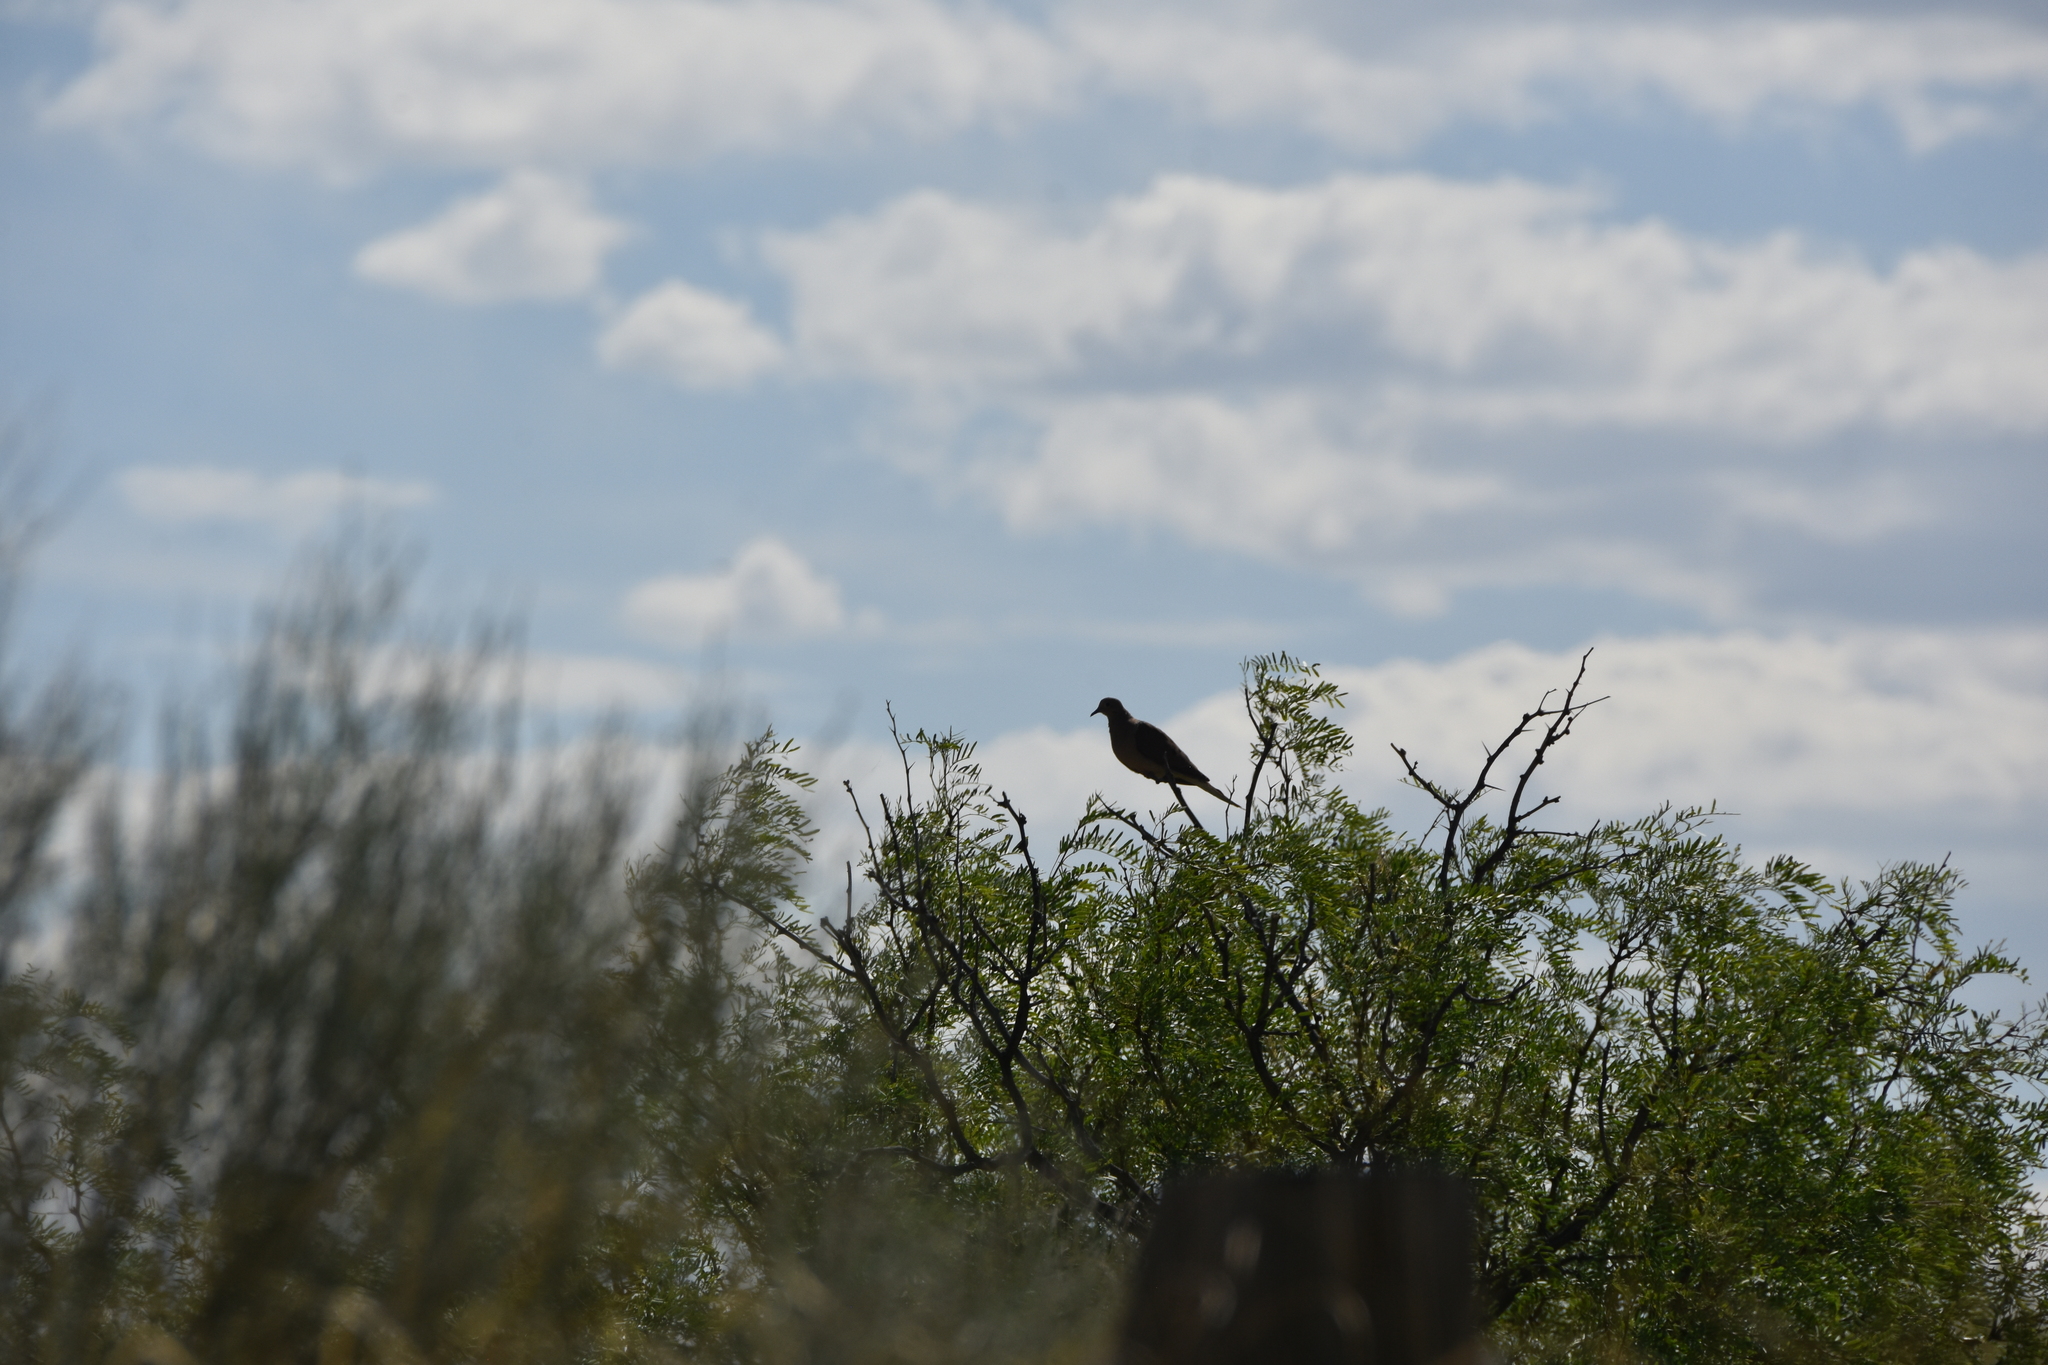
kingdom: Animalia
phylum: Chordata
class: Aves
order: Columbiformes
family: Columbidae
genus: Zenaida
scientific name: Zenaida macroura
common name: Mourning dove
